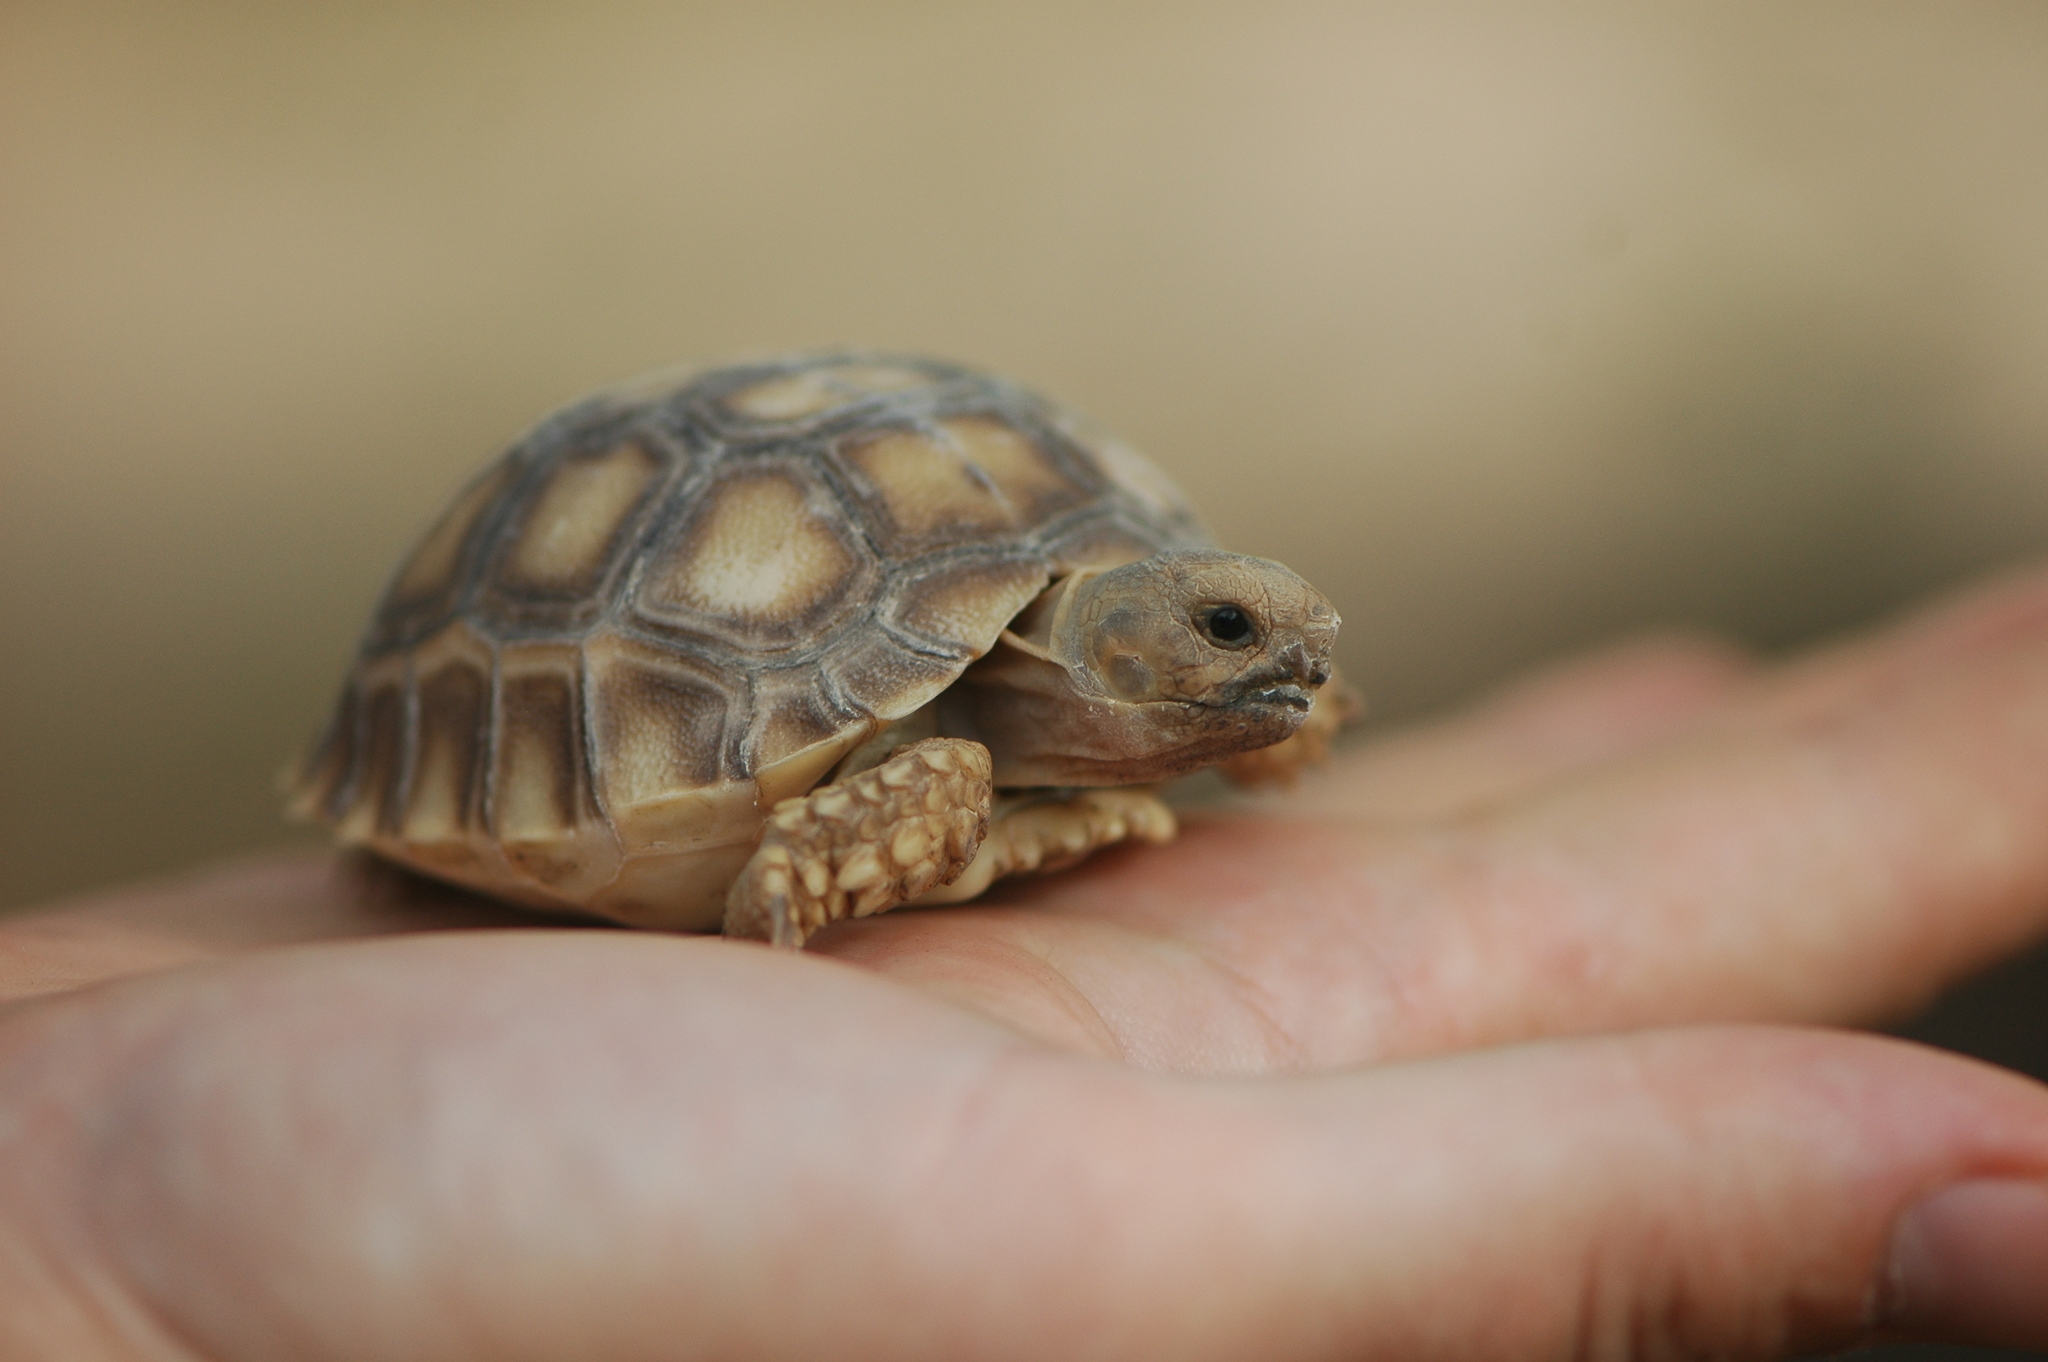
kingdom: Animalia
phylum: Chordata
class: Testudines
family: Testudinidae
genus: Centrochelys
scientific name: Centrochelys sulcata
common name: African spurred tortoise
